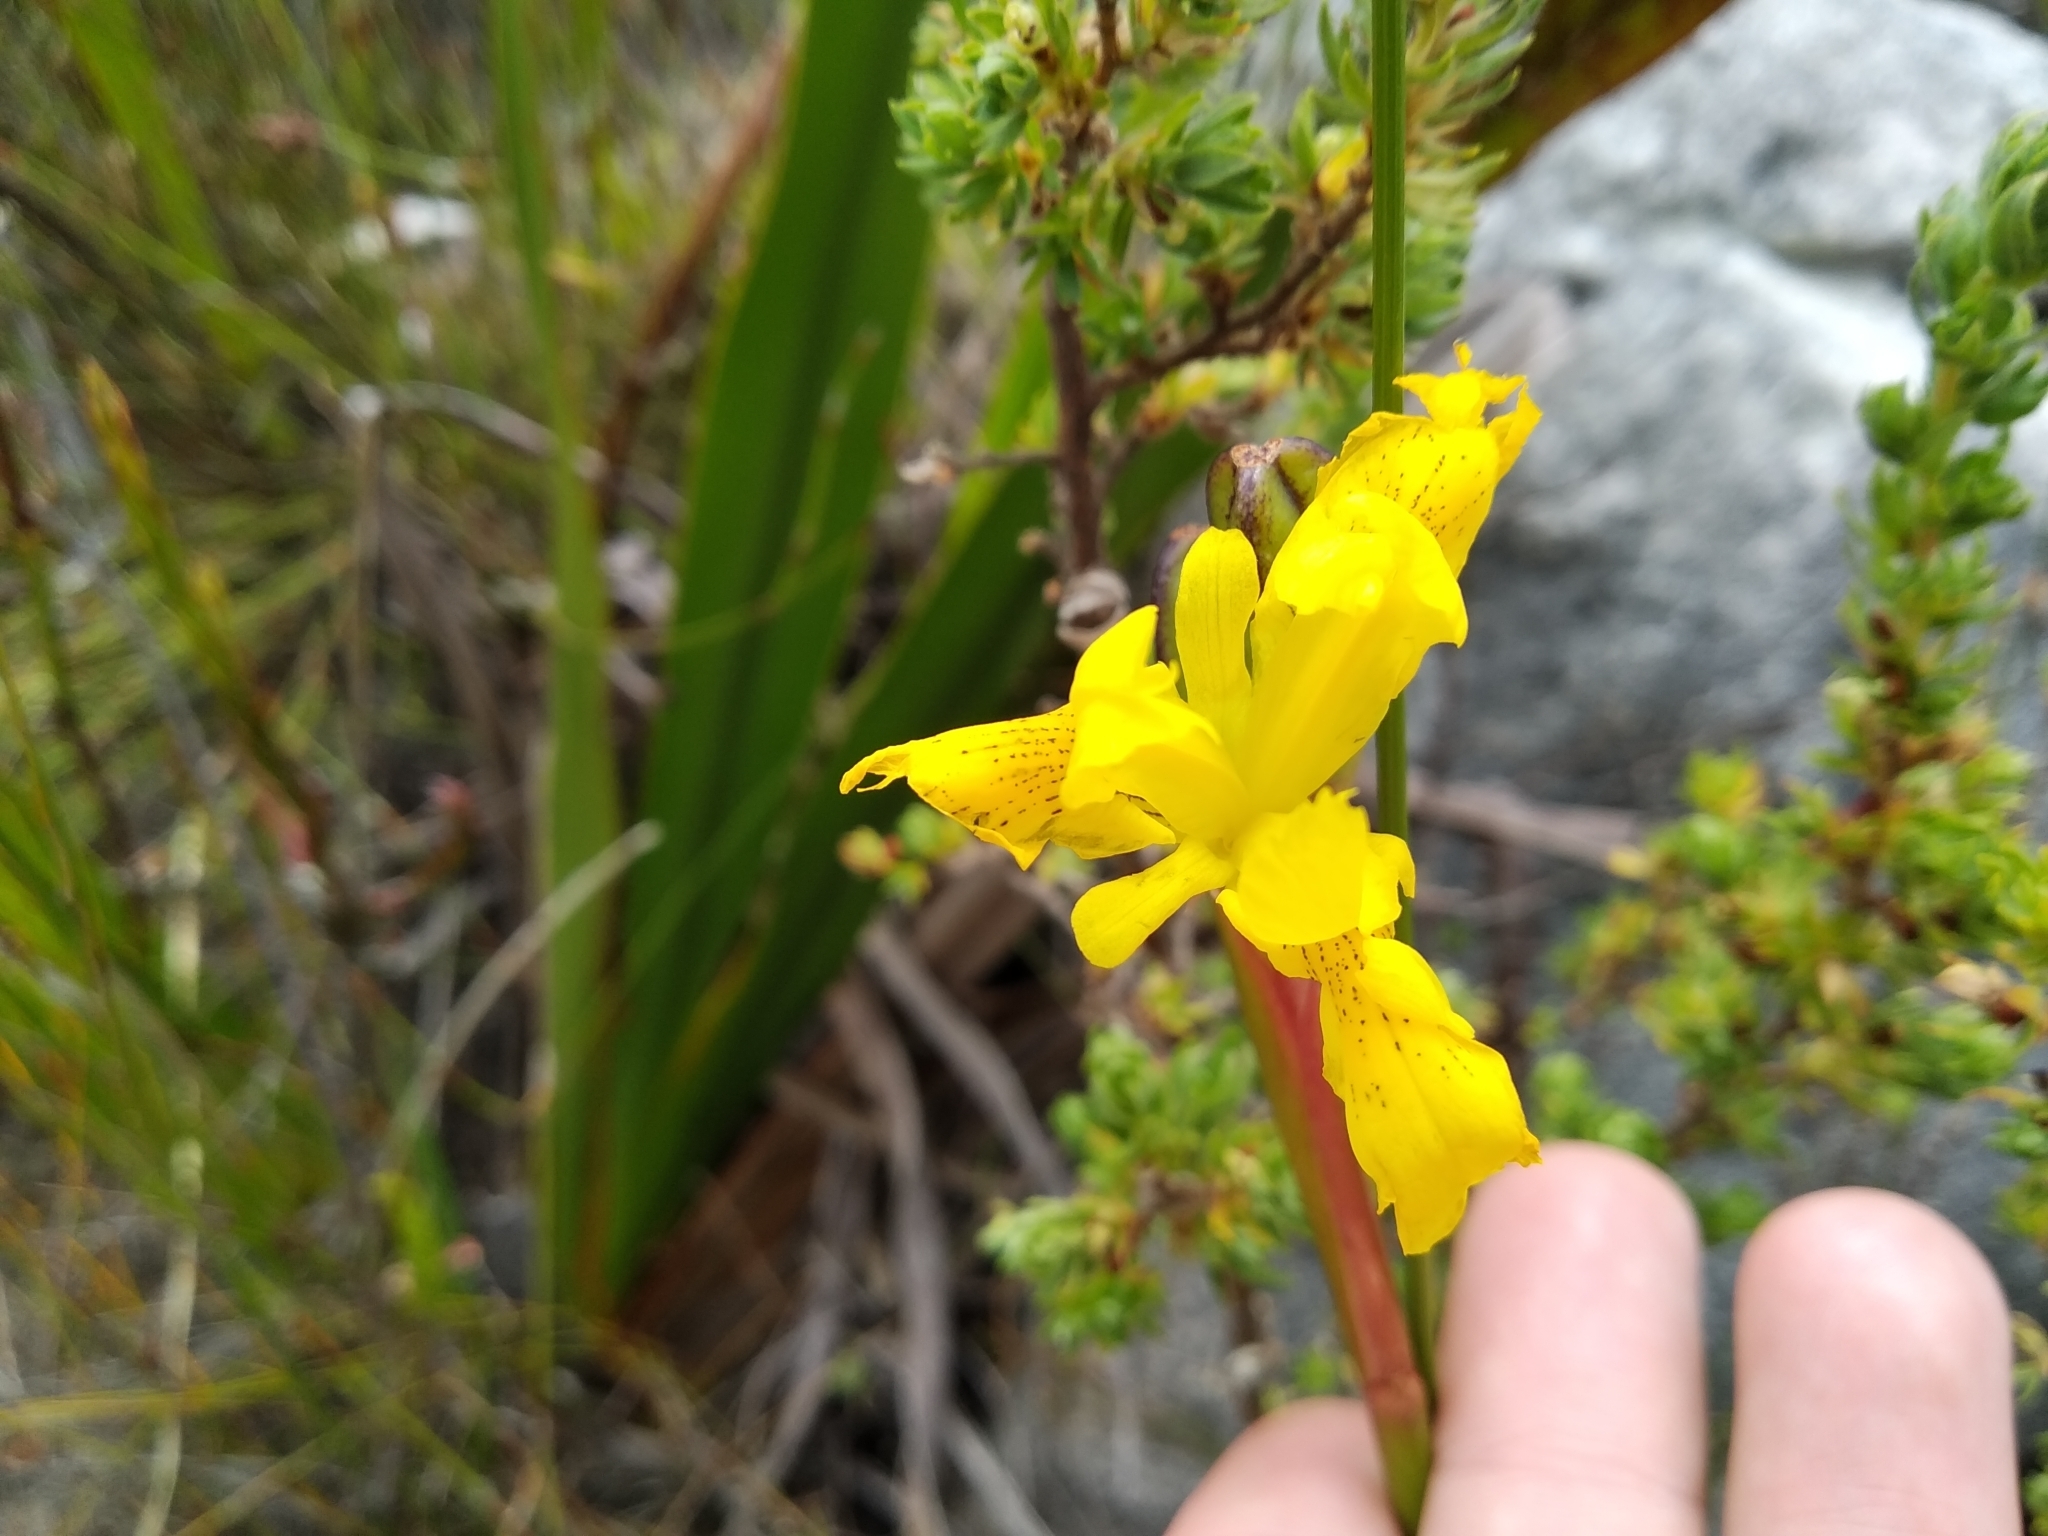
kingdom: Plantae
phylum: Tracheophyta
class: Liliopsida
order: Asparagales
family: Iridaceae
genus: Moraea
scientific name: Moraea neglecta
